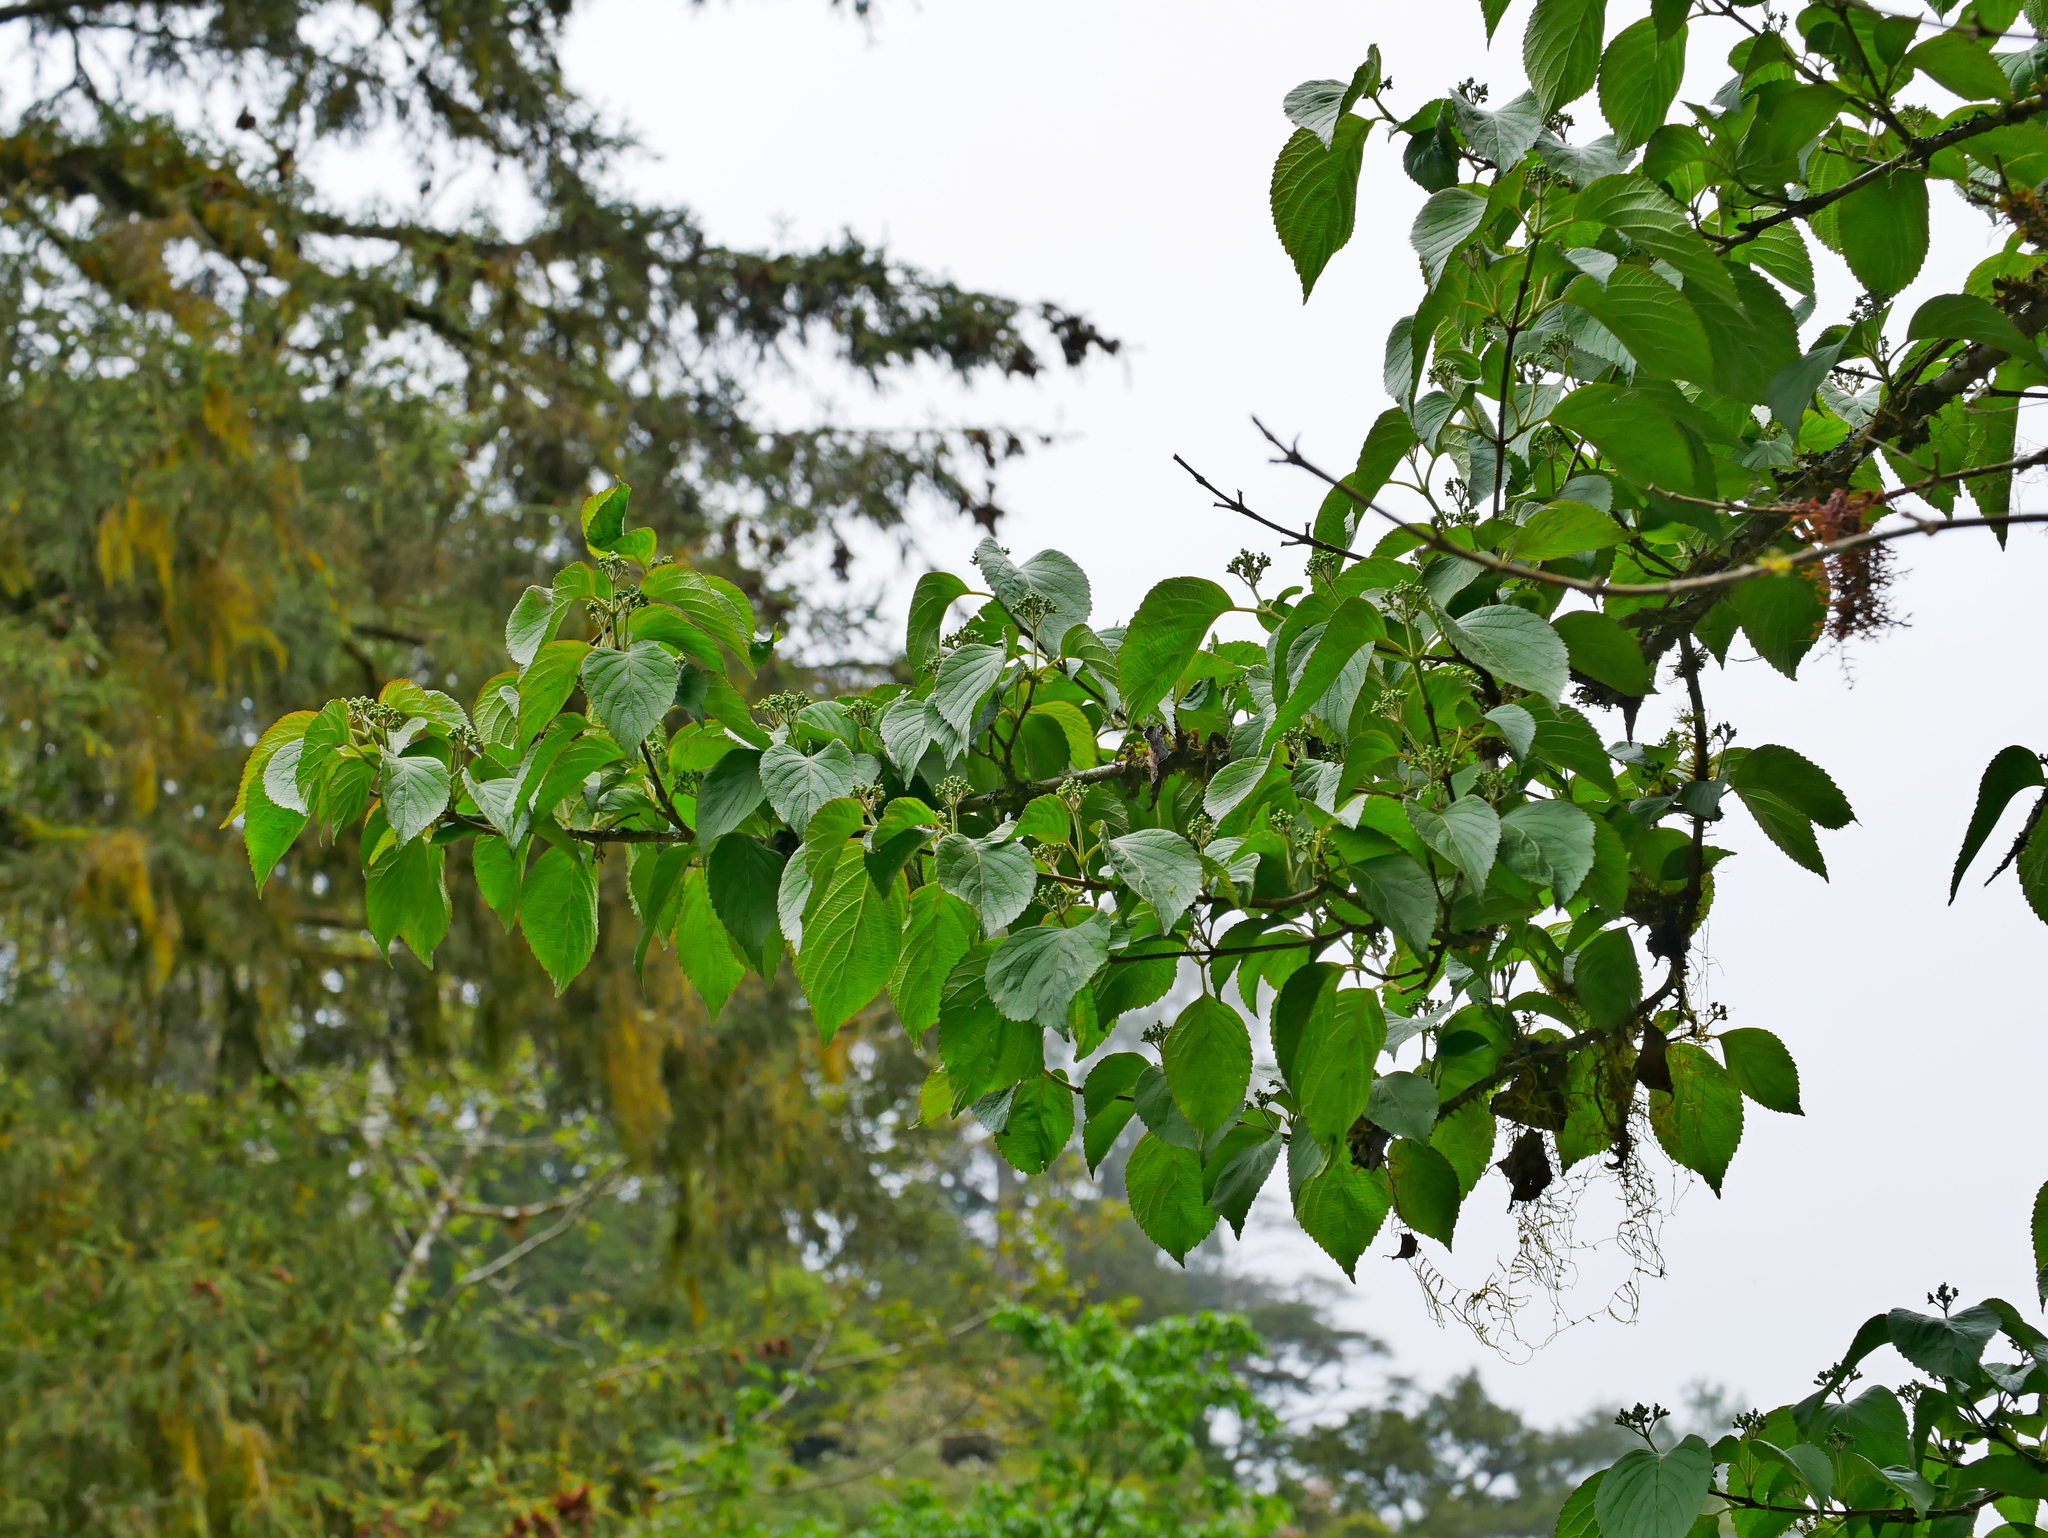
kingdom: Plantae
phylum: Tracheophyta
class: Magnoliopsida
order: Dipsacales
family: Viburnaceae
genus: Viburnum
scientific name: Viburnum plicatum
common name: Japanese snowball
